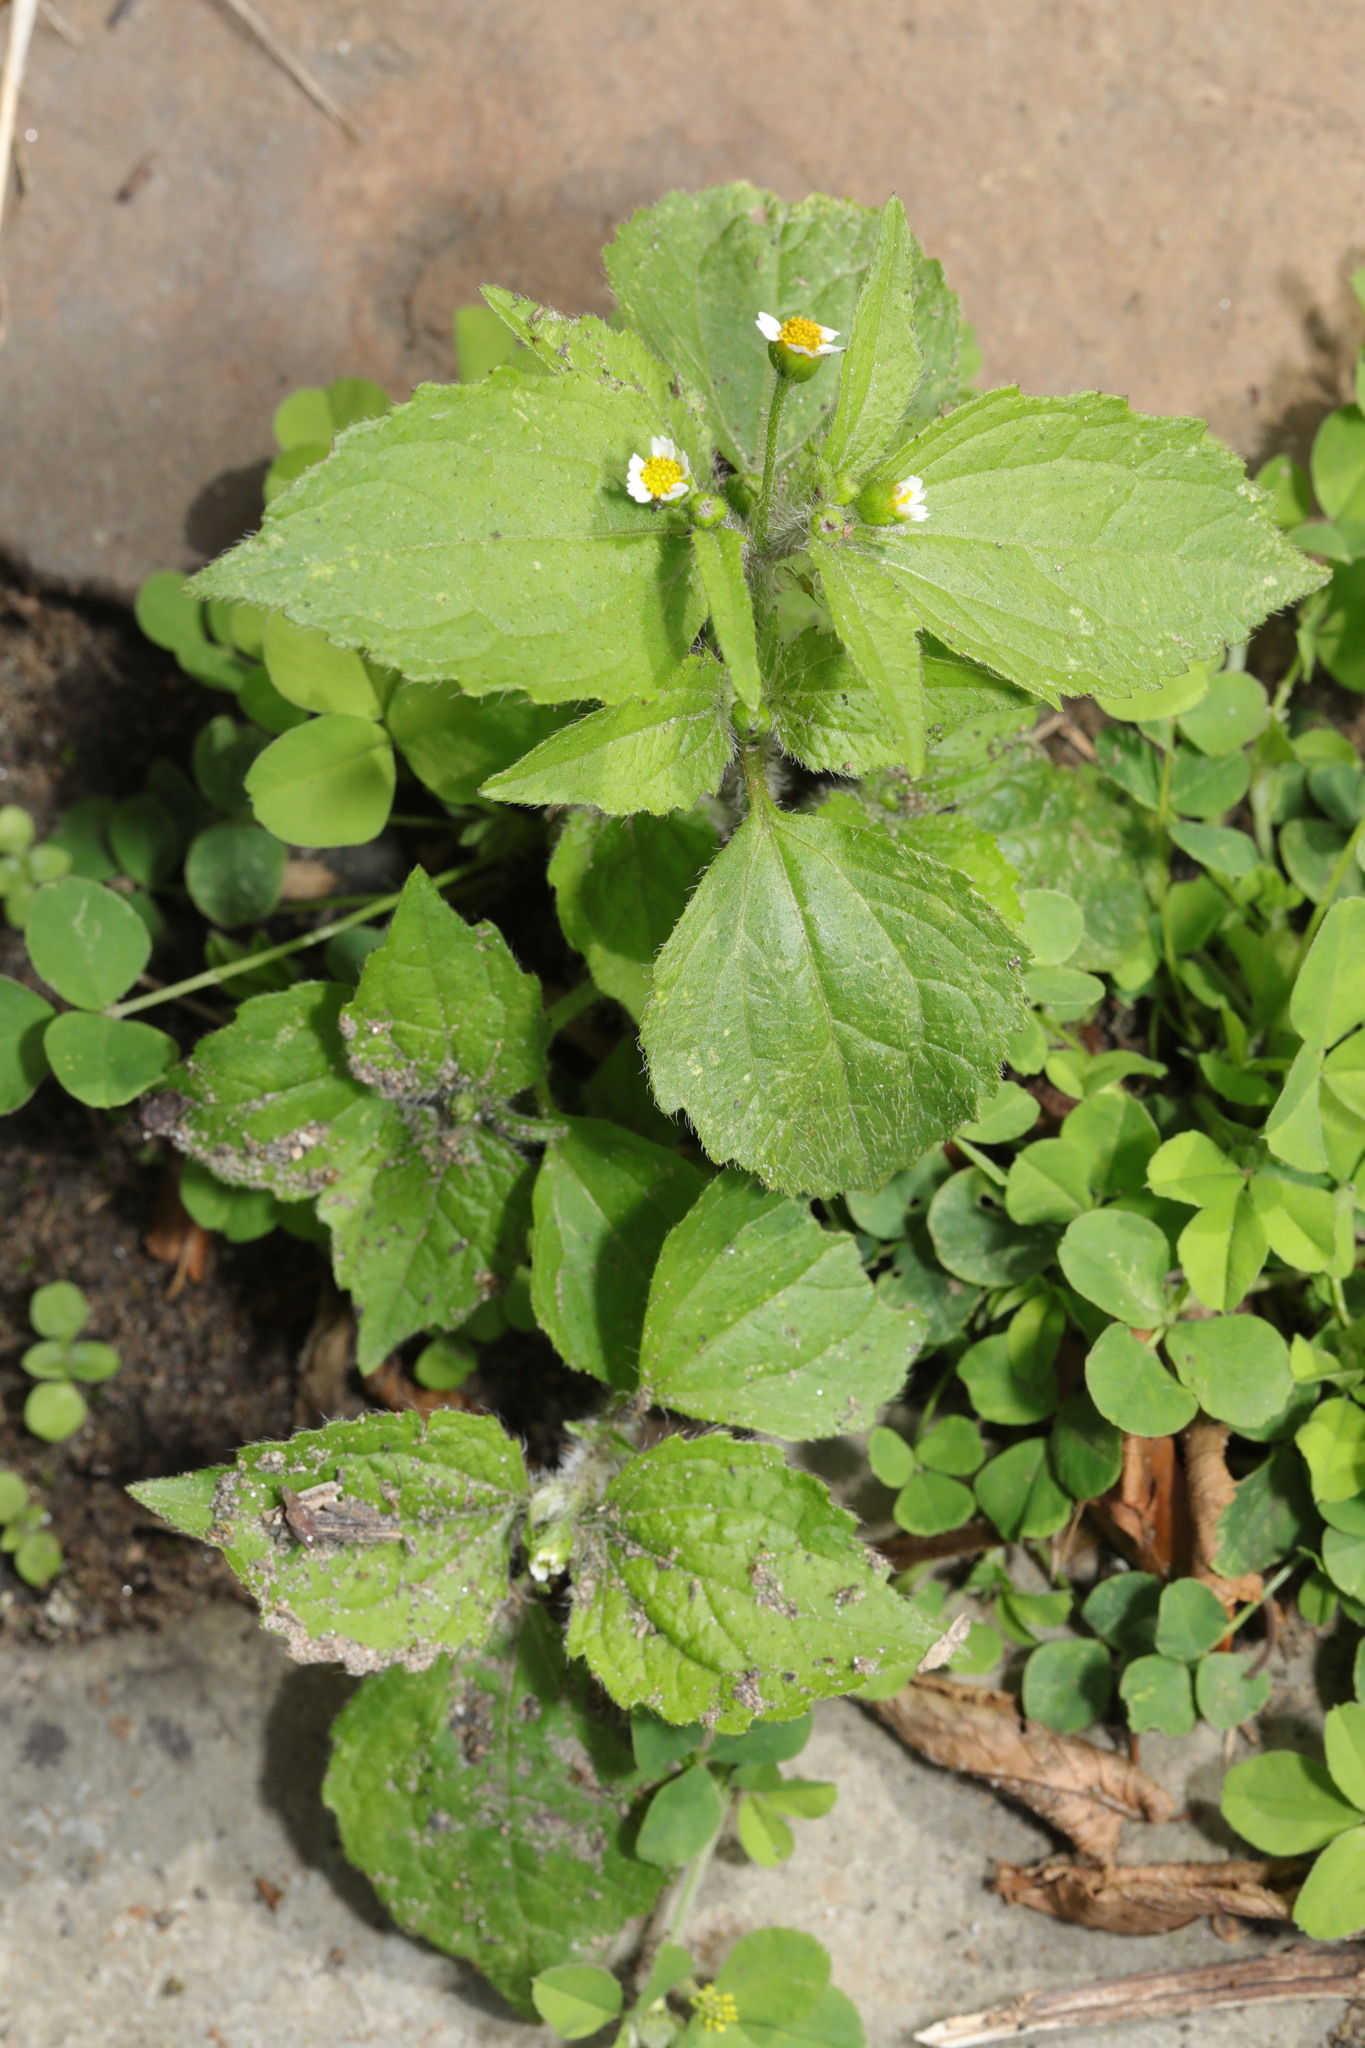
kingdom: Plantae
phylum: Tracheophyta
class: Magnoliopsida
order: Asterales
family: Asteraceae
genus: Galinsoga
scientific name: Galinsoga quadriradiata
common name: Shaggy soldier
